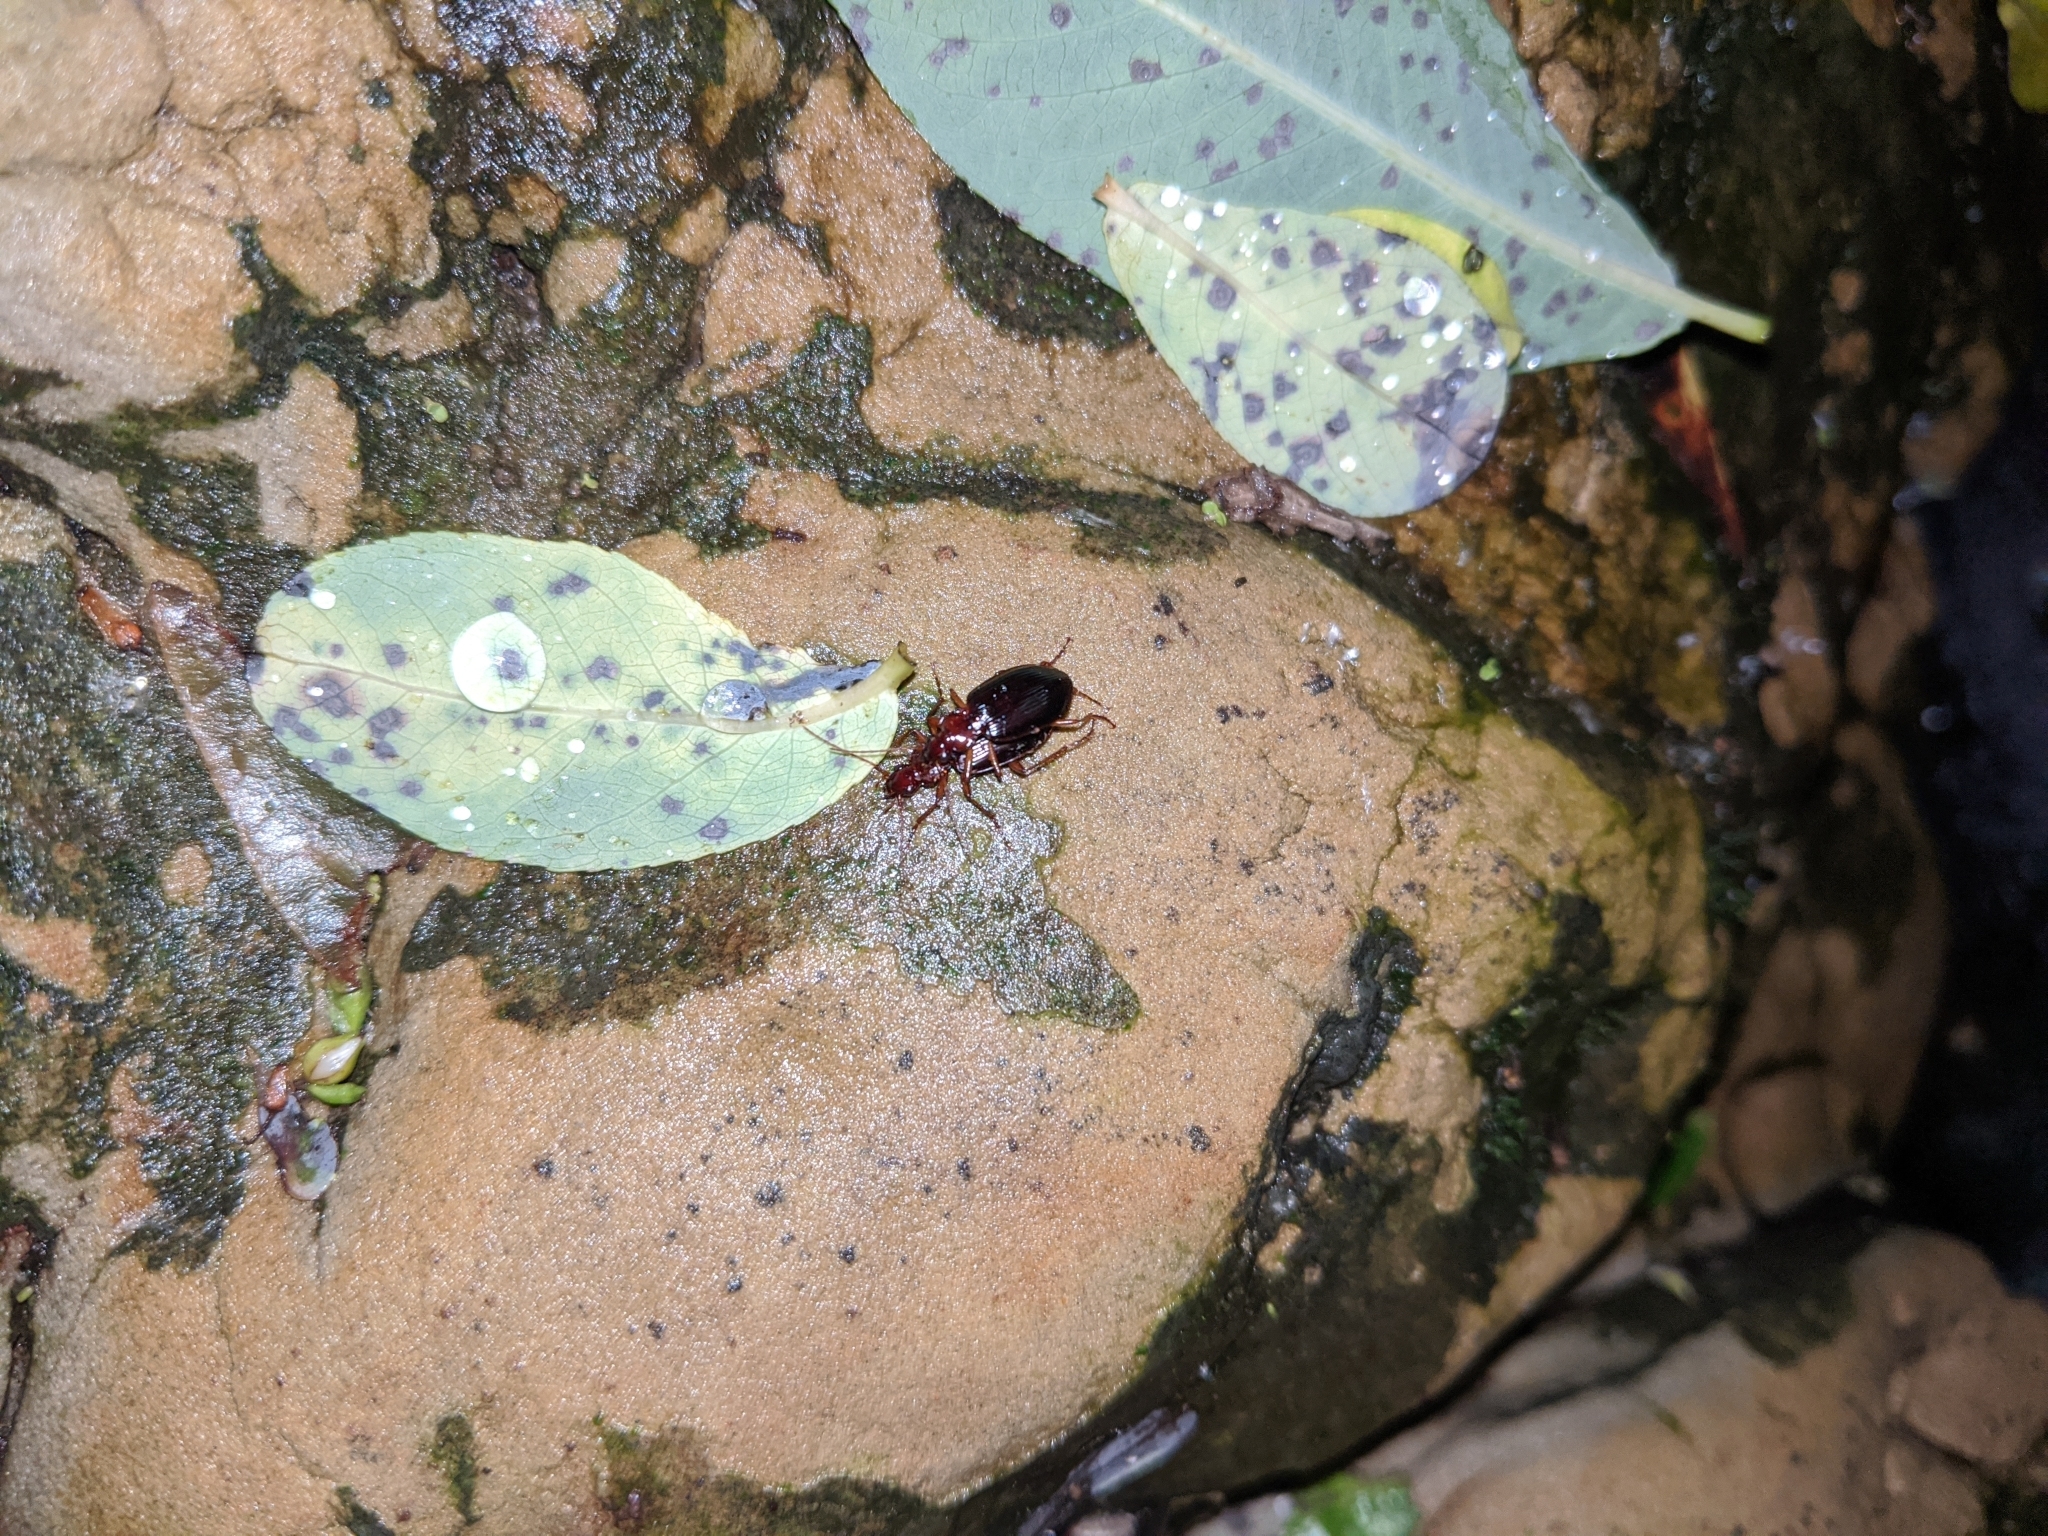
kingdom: Animalia
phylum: Arthropoda
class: Insecta
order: Coleoptera
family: Carabidae
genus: Platynus
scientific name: Platynus brunneomarginatus
